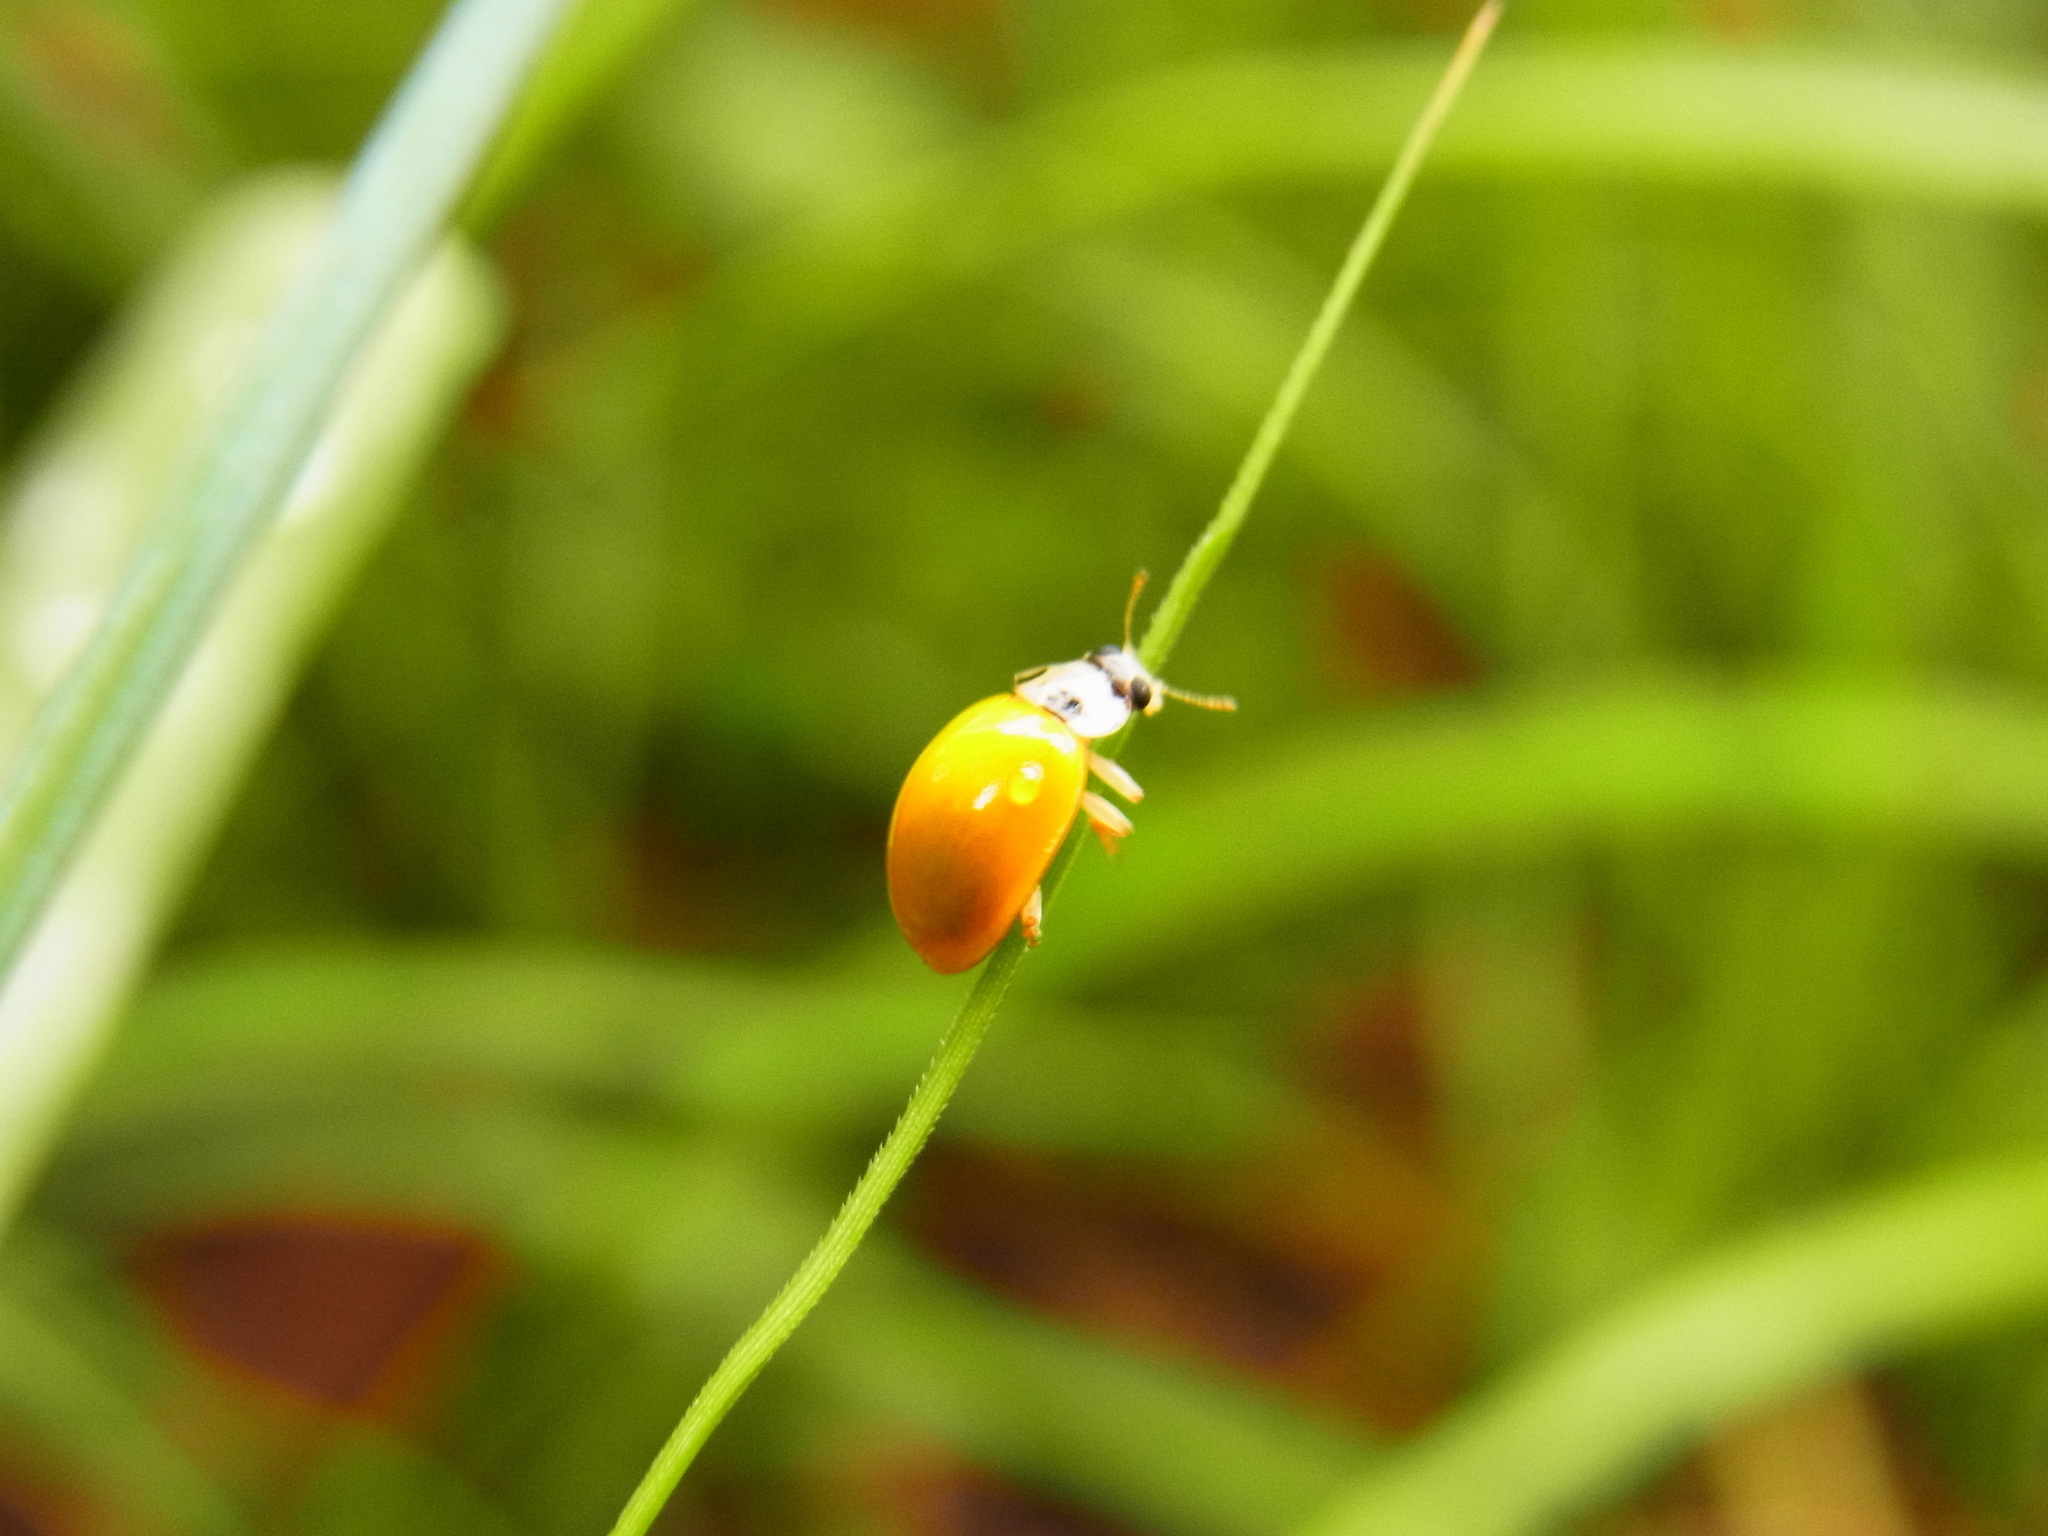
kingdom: Animalia
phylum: Arthropoda
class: Insecta
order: Coleoptera
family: Coccinellidae
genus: Illeis
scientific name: Illeis koebelei
